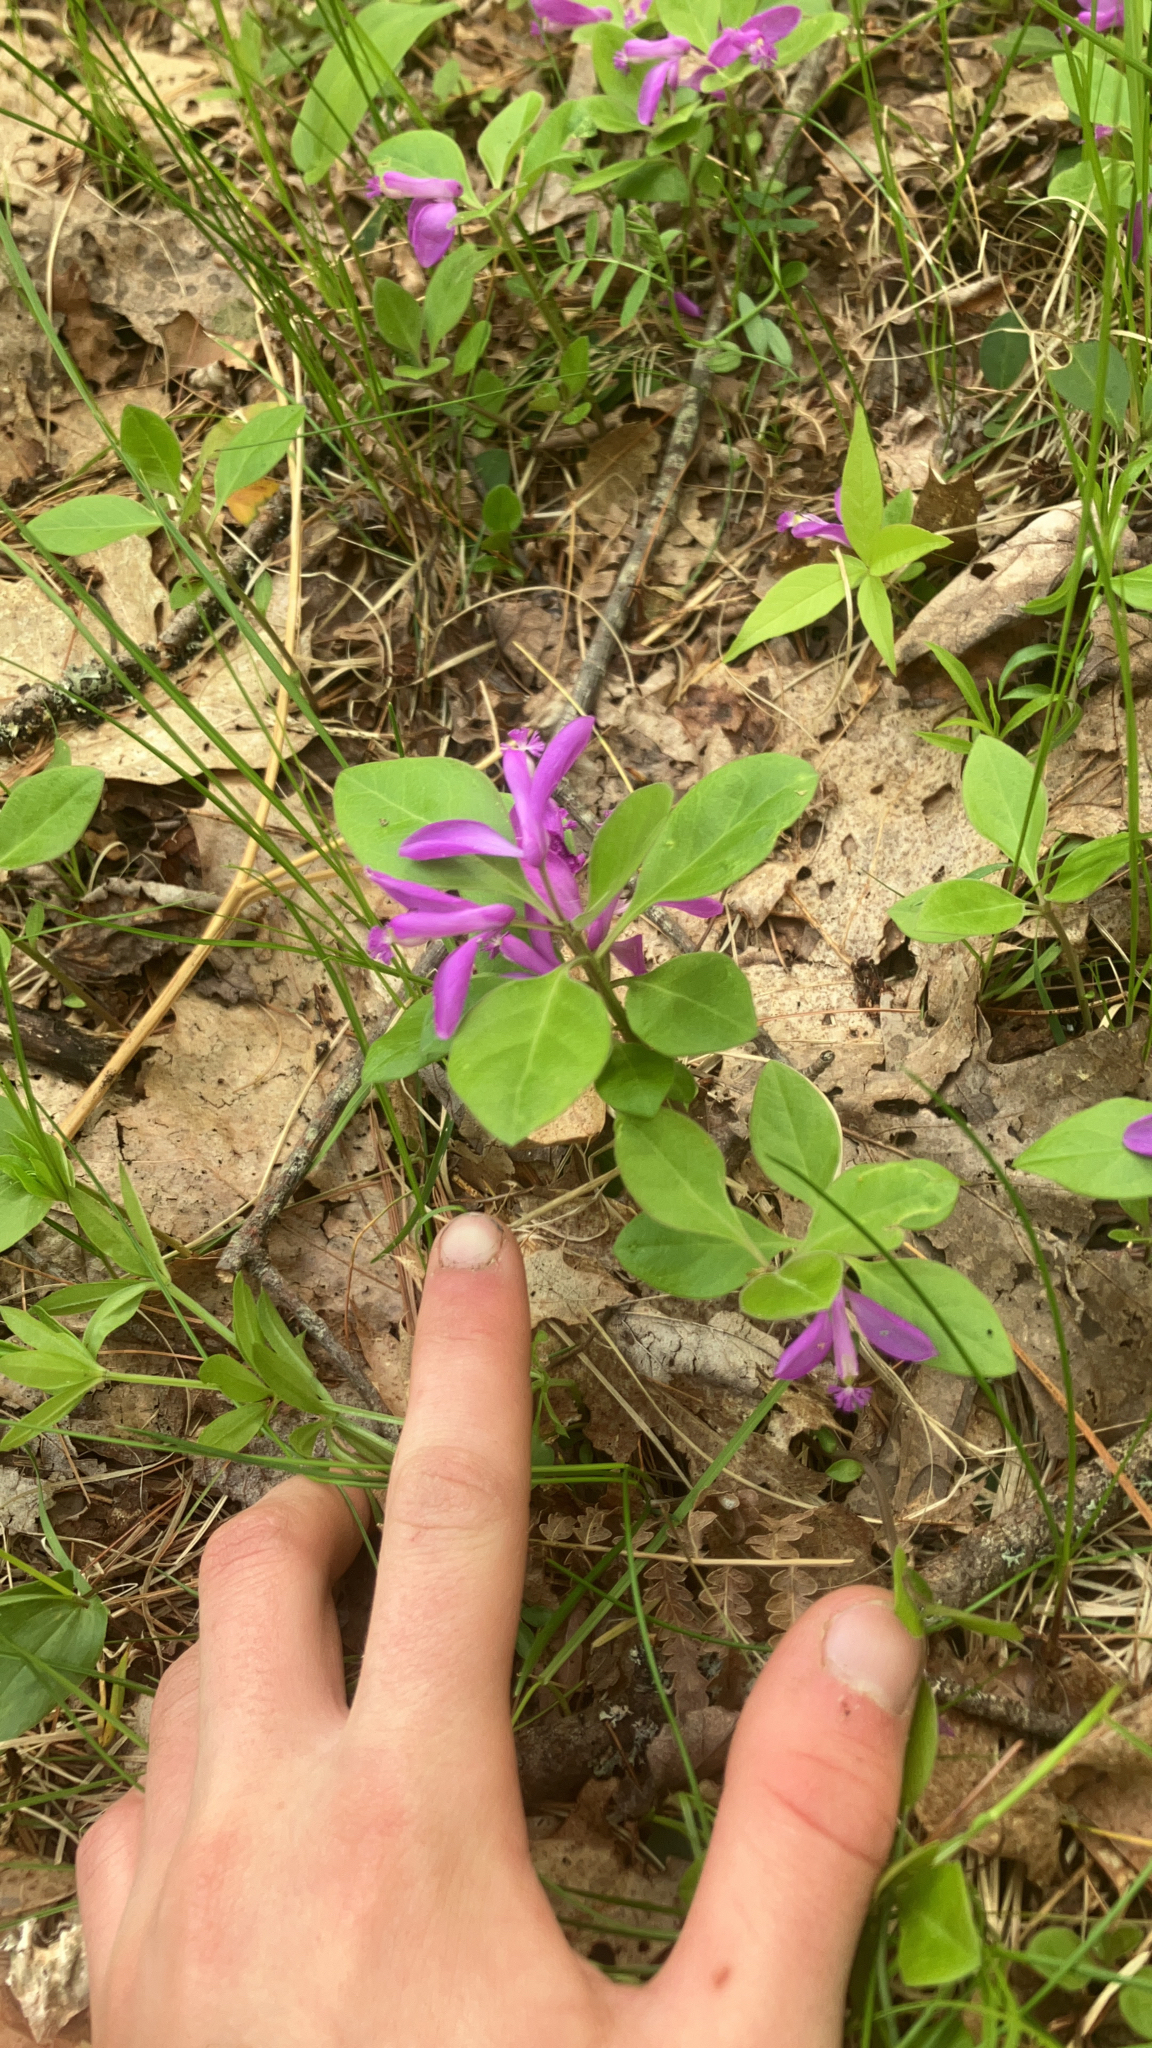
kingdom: Plantae
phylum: Tracheophyta
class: Magnoliopsida
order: Fabales
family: Polygalaceae
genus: Polygaloides
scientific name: Polygaloides paucifolia
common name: Bird-on-the-wing
